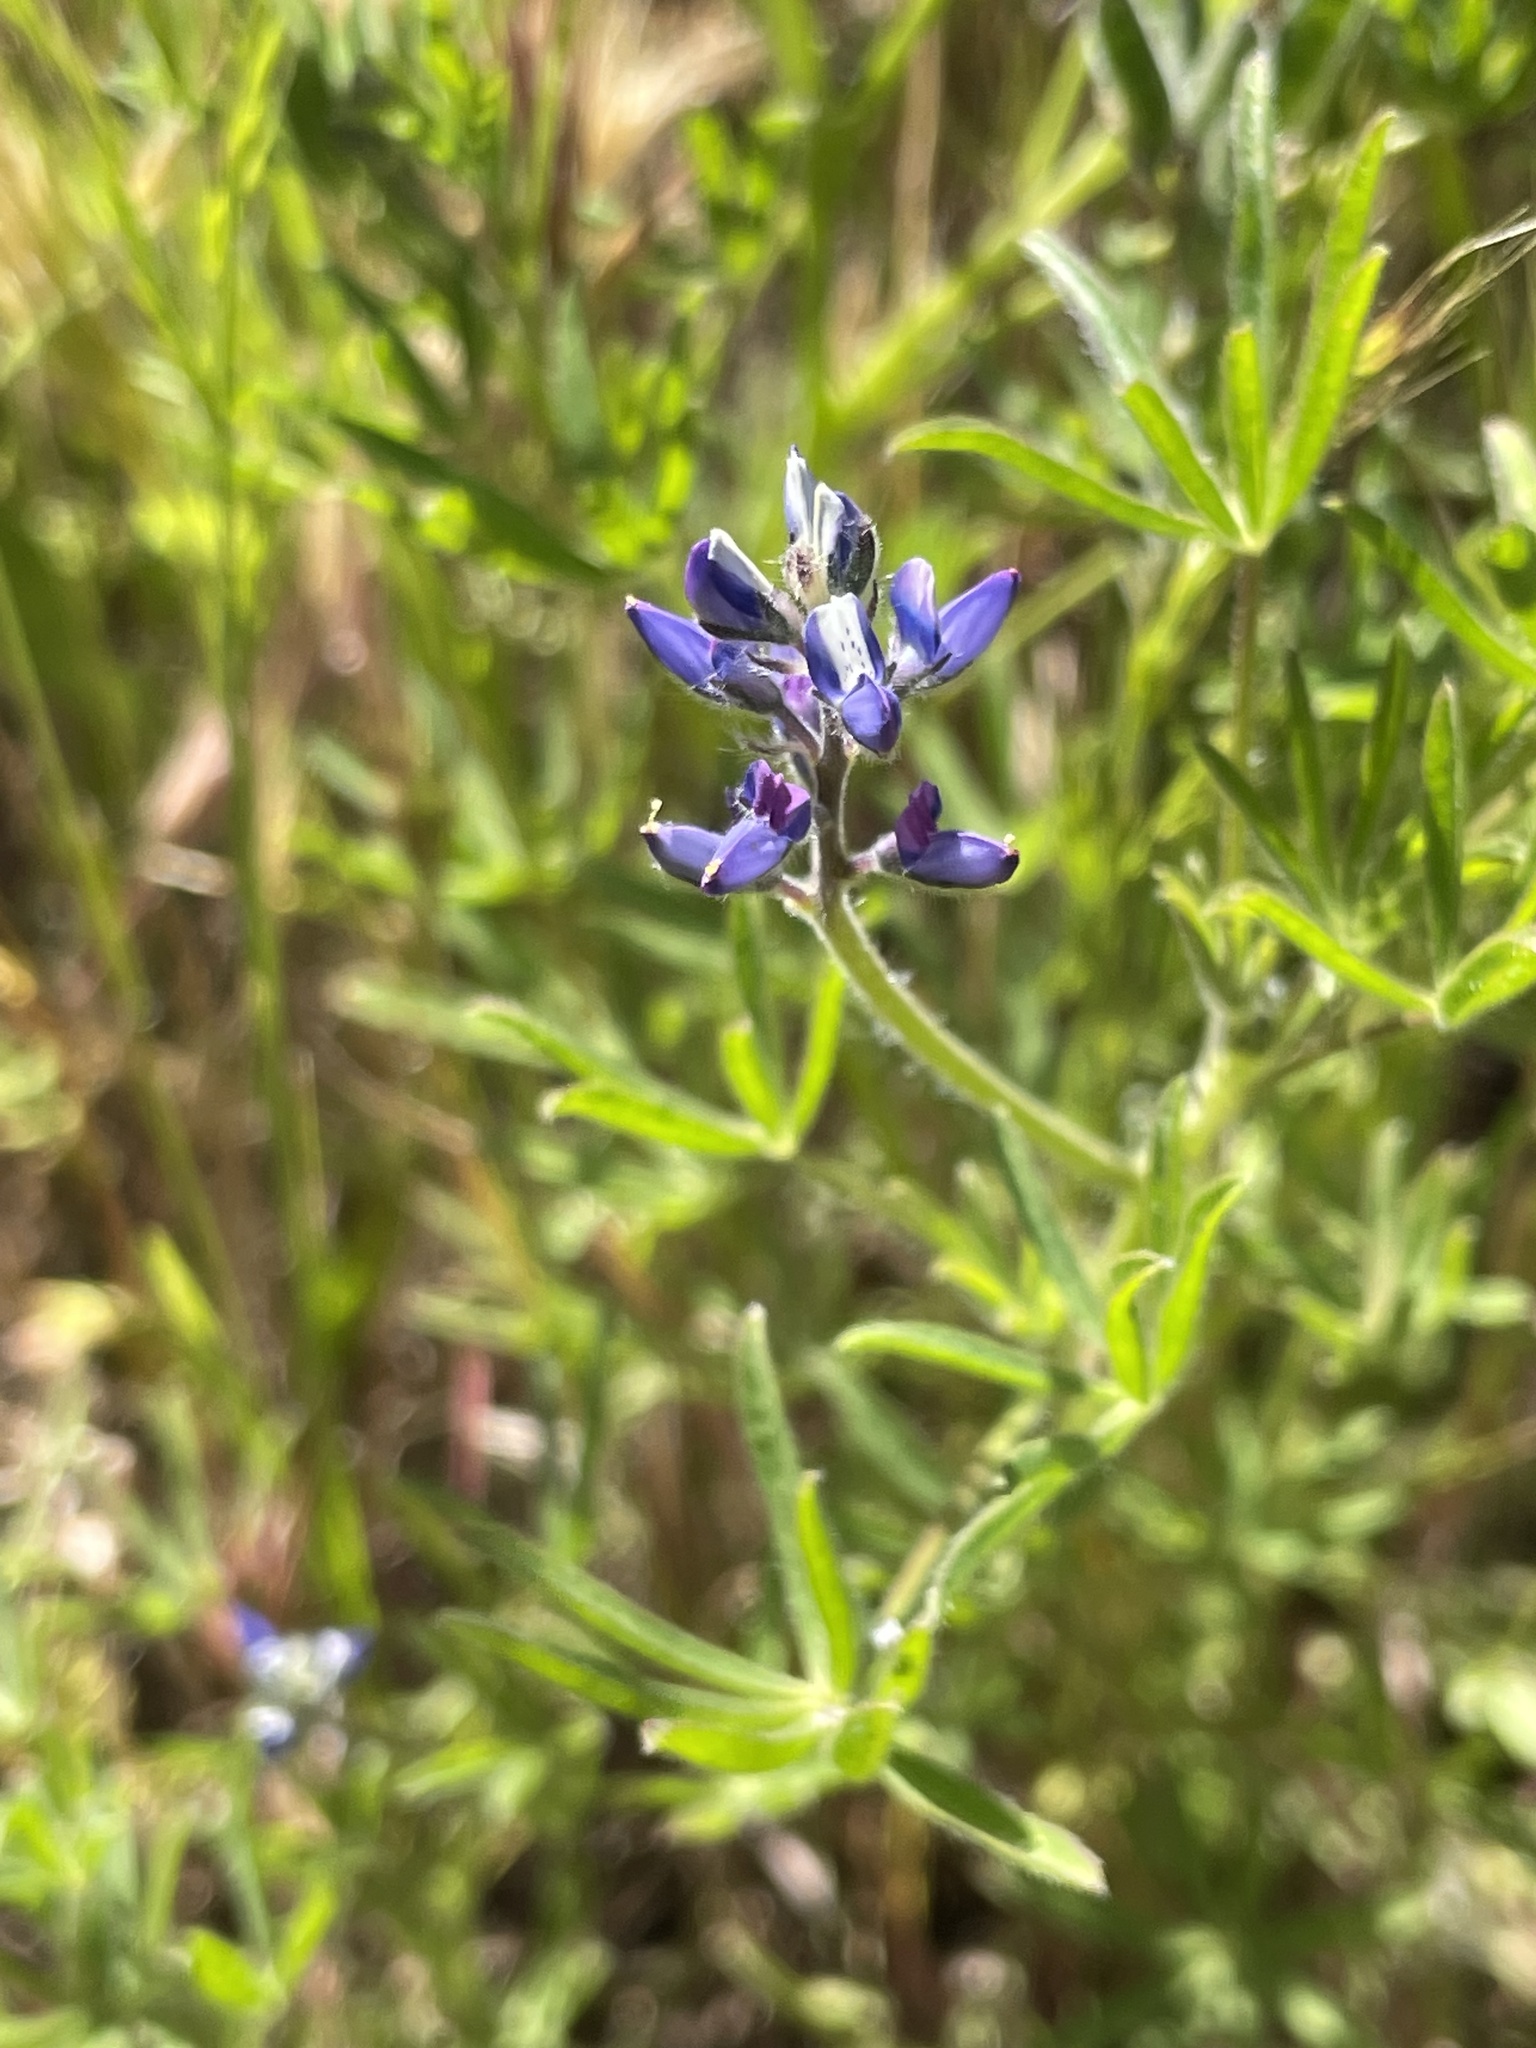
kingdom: Plantae
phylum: Tracheophyta
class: Magnoliopsida
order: Fabales
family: Fabaceae
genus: Lupinus
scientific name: Lupinus bicolor
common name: Miniature lupine
